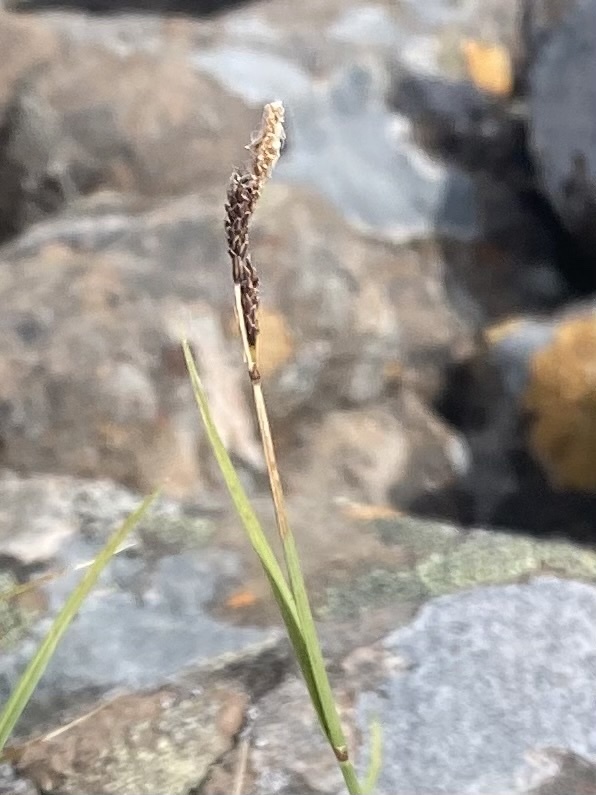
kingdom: Plantae
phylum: Tracheophyta
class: Liliopsida
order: Poales
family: Cyperaceae
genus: Carex
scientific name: Carex bigelowii
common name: Stiff sedge
